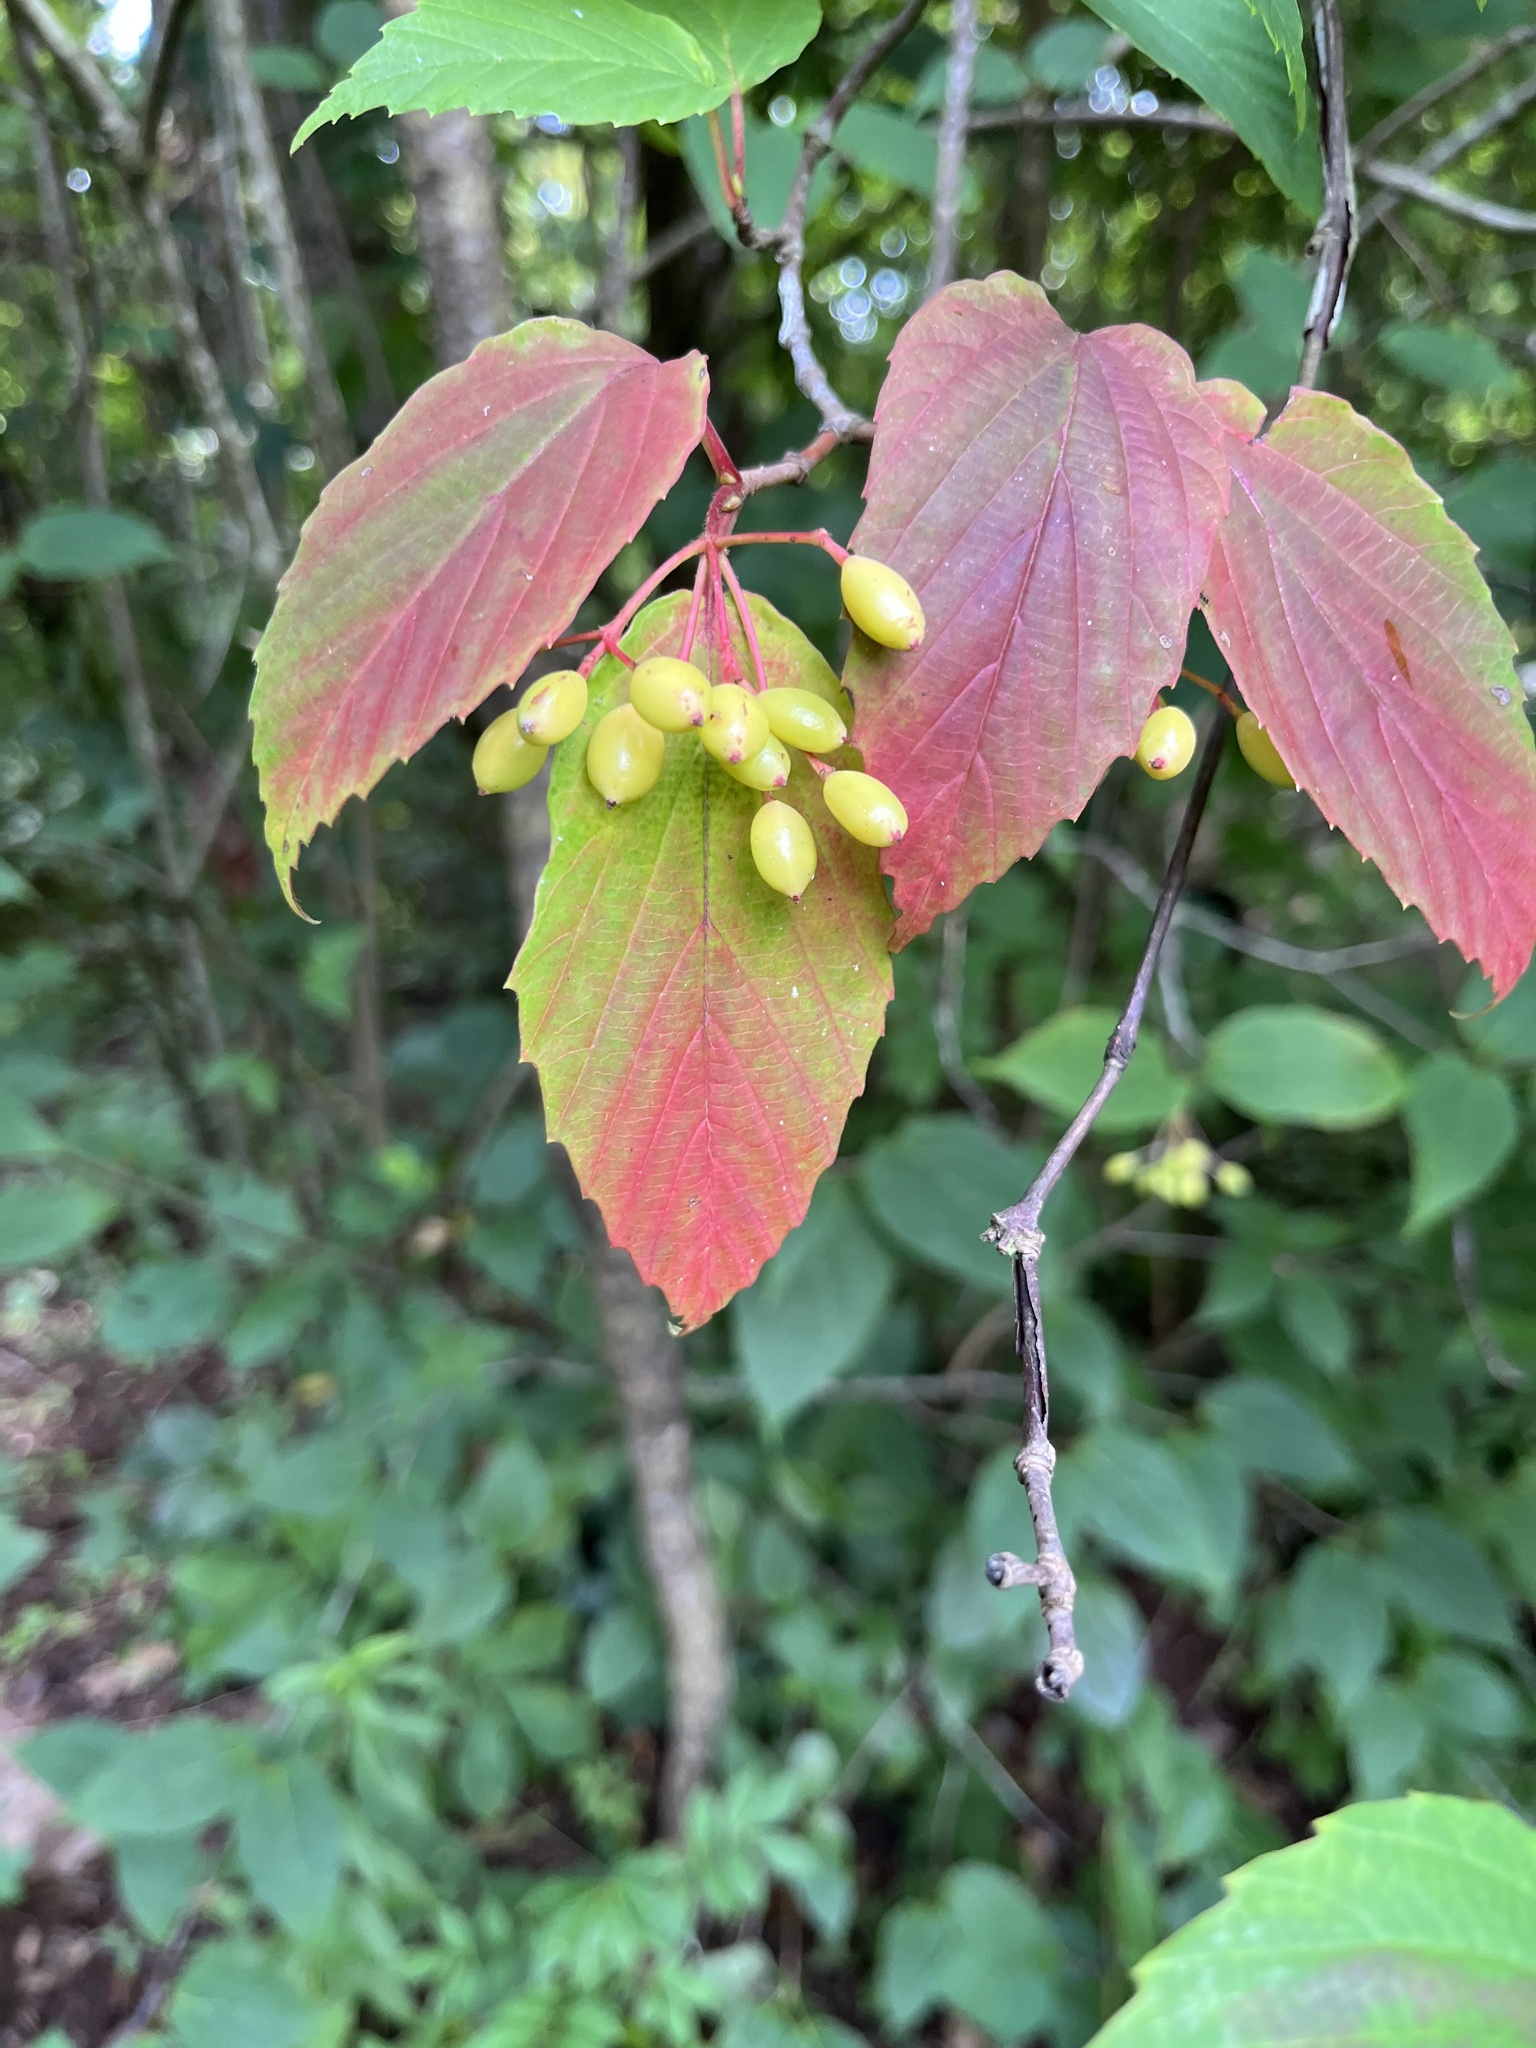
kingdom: Plantae
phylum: Tracheophyta
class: Magnoliopsida
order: Dipsacales
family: Viburnaceae
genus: Viburnum
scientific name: Viburnum setigerum
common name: Tea viburnum
